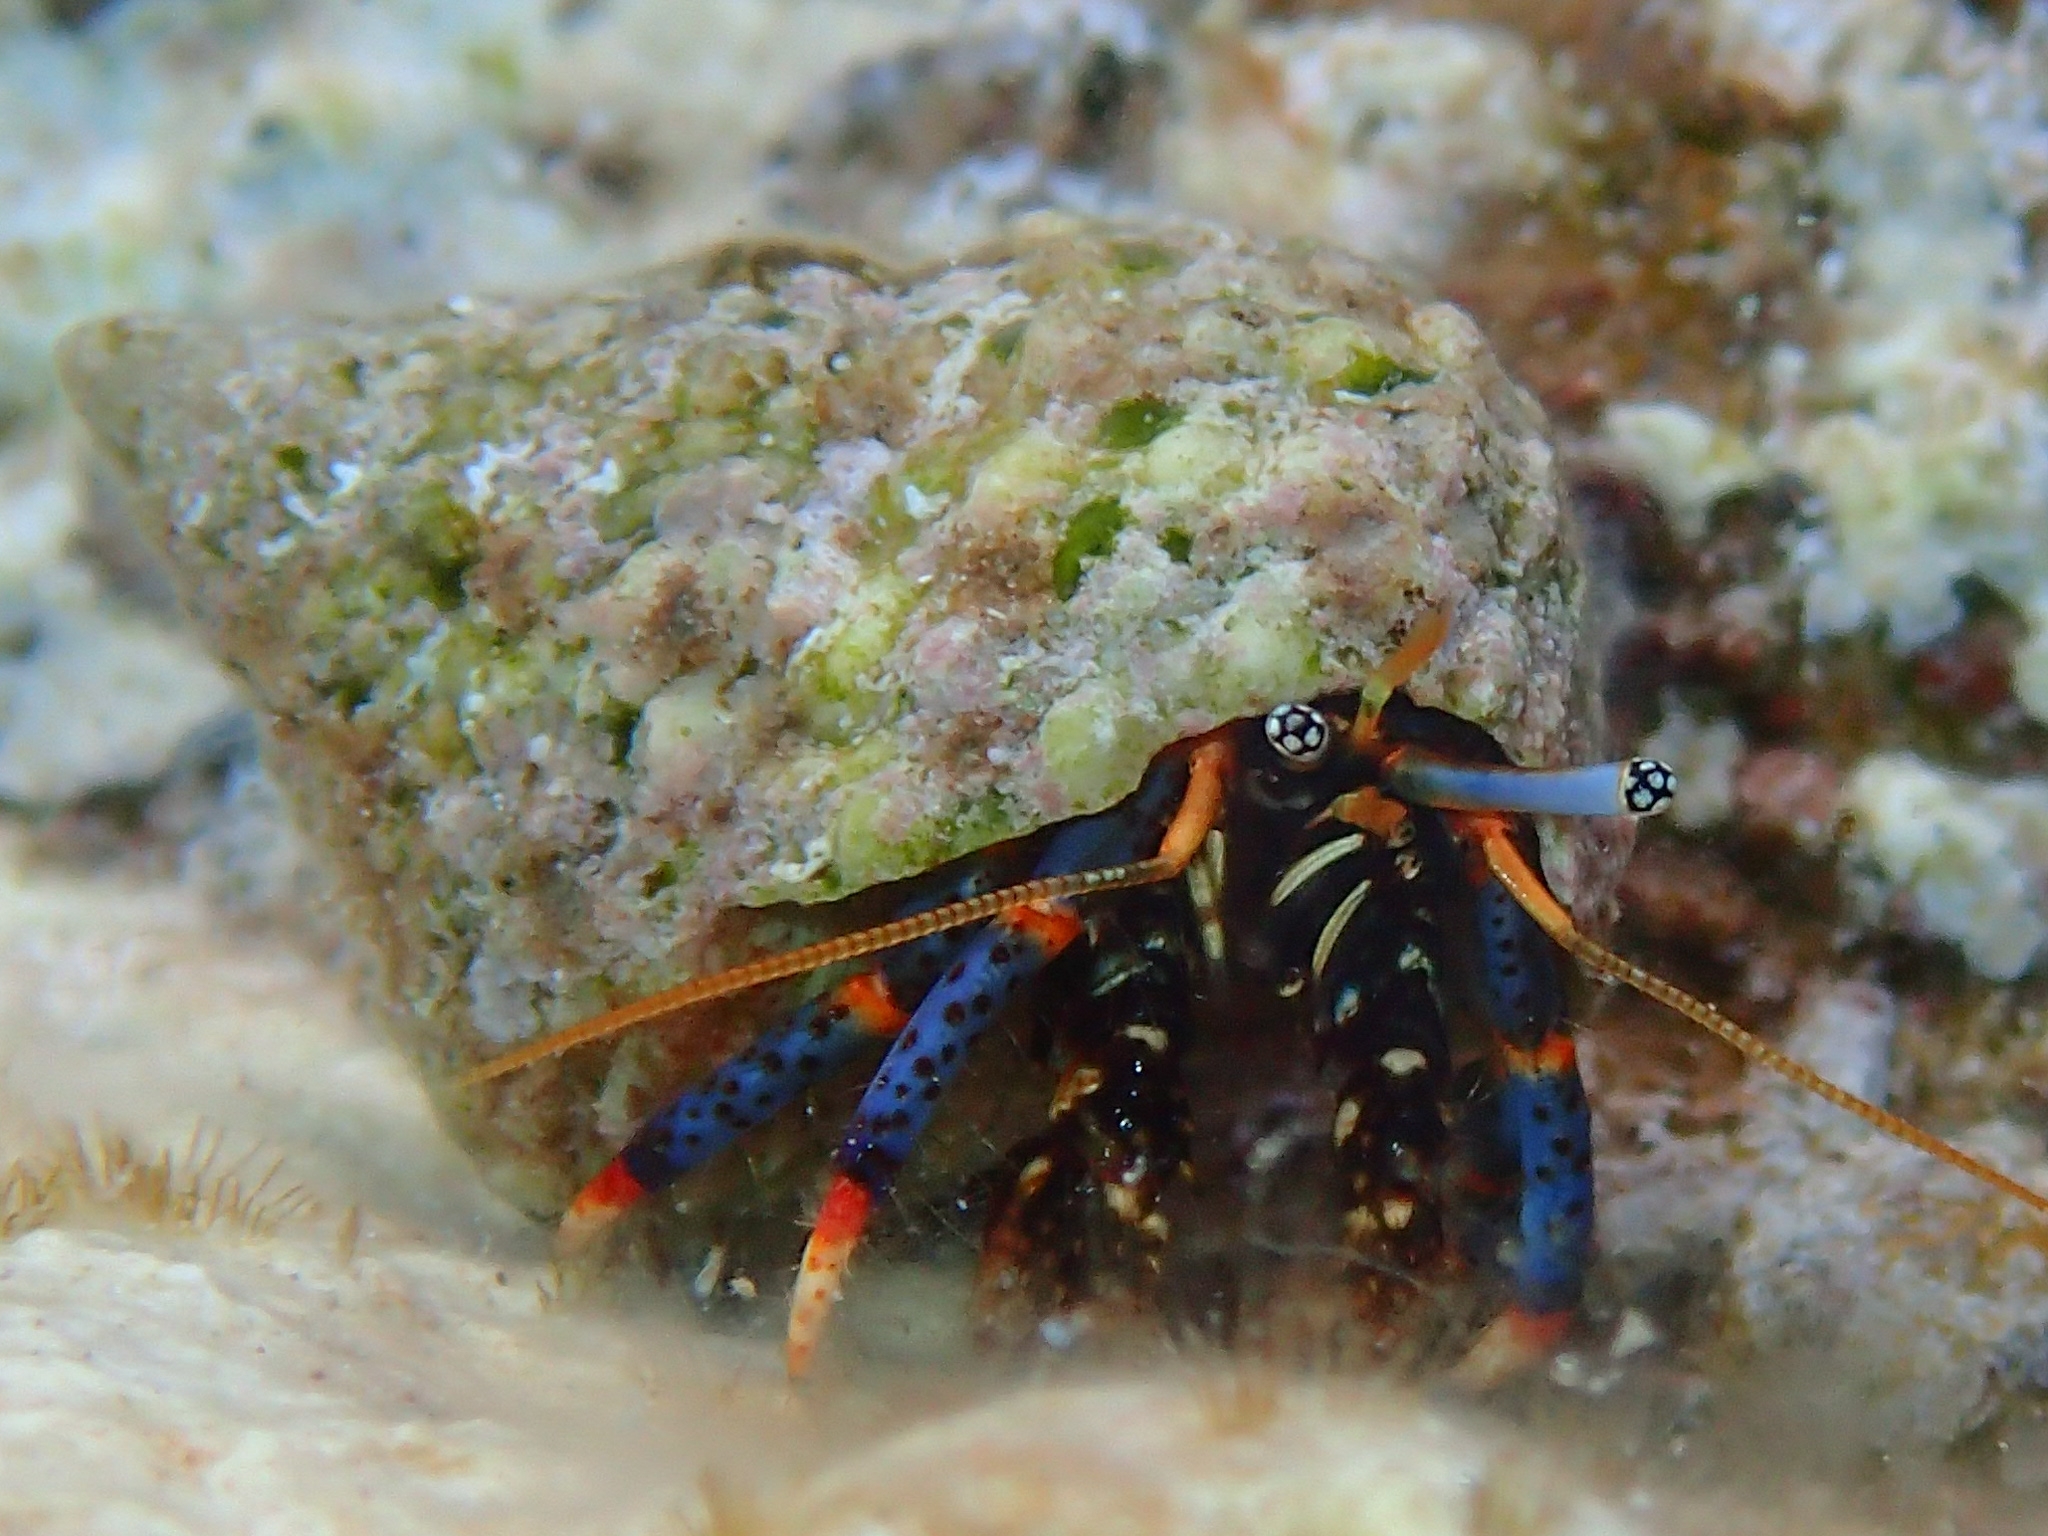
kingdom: Animalia
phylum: Arthropoda
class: Malacostraca
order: Decapoda
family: Diogenidae
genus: Clibanarius
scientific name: Clibanarius tricolor
